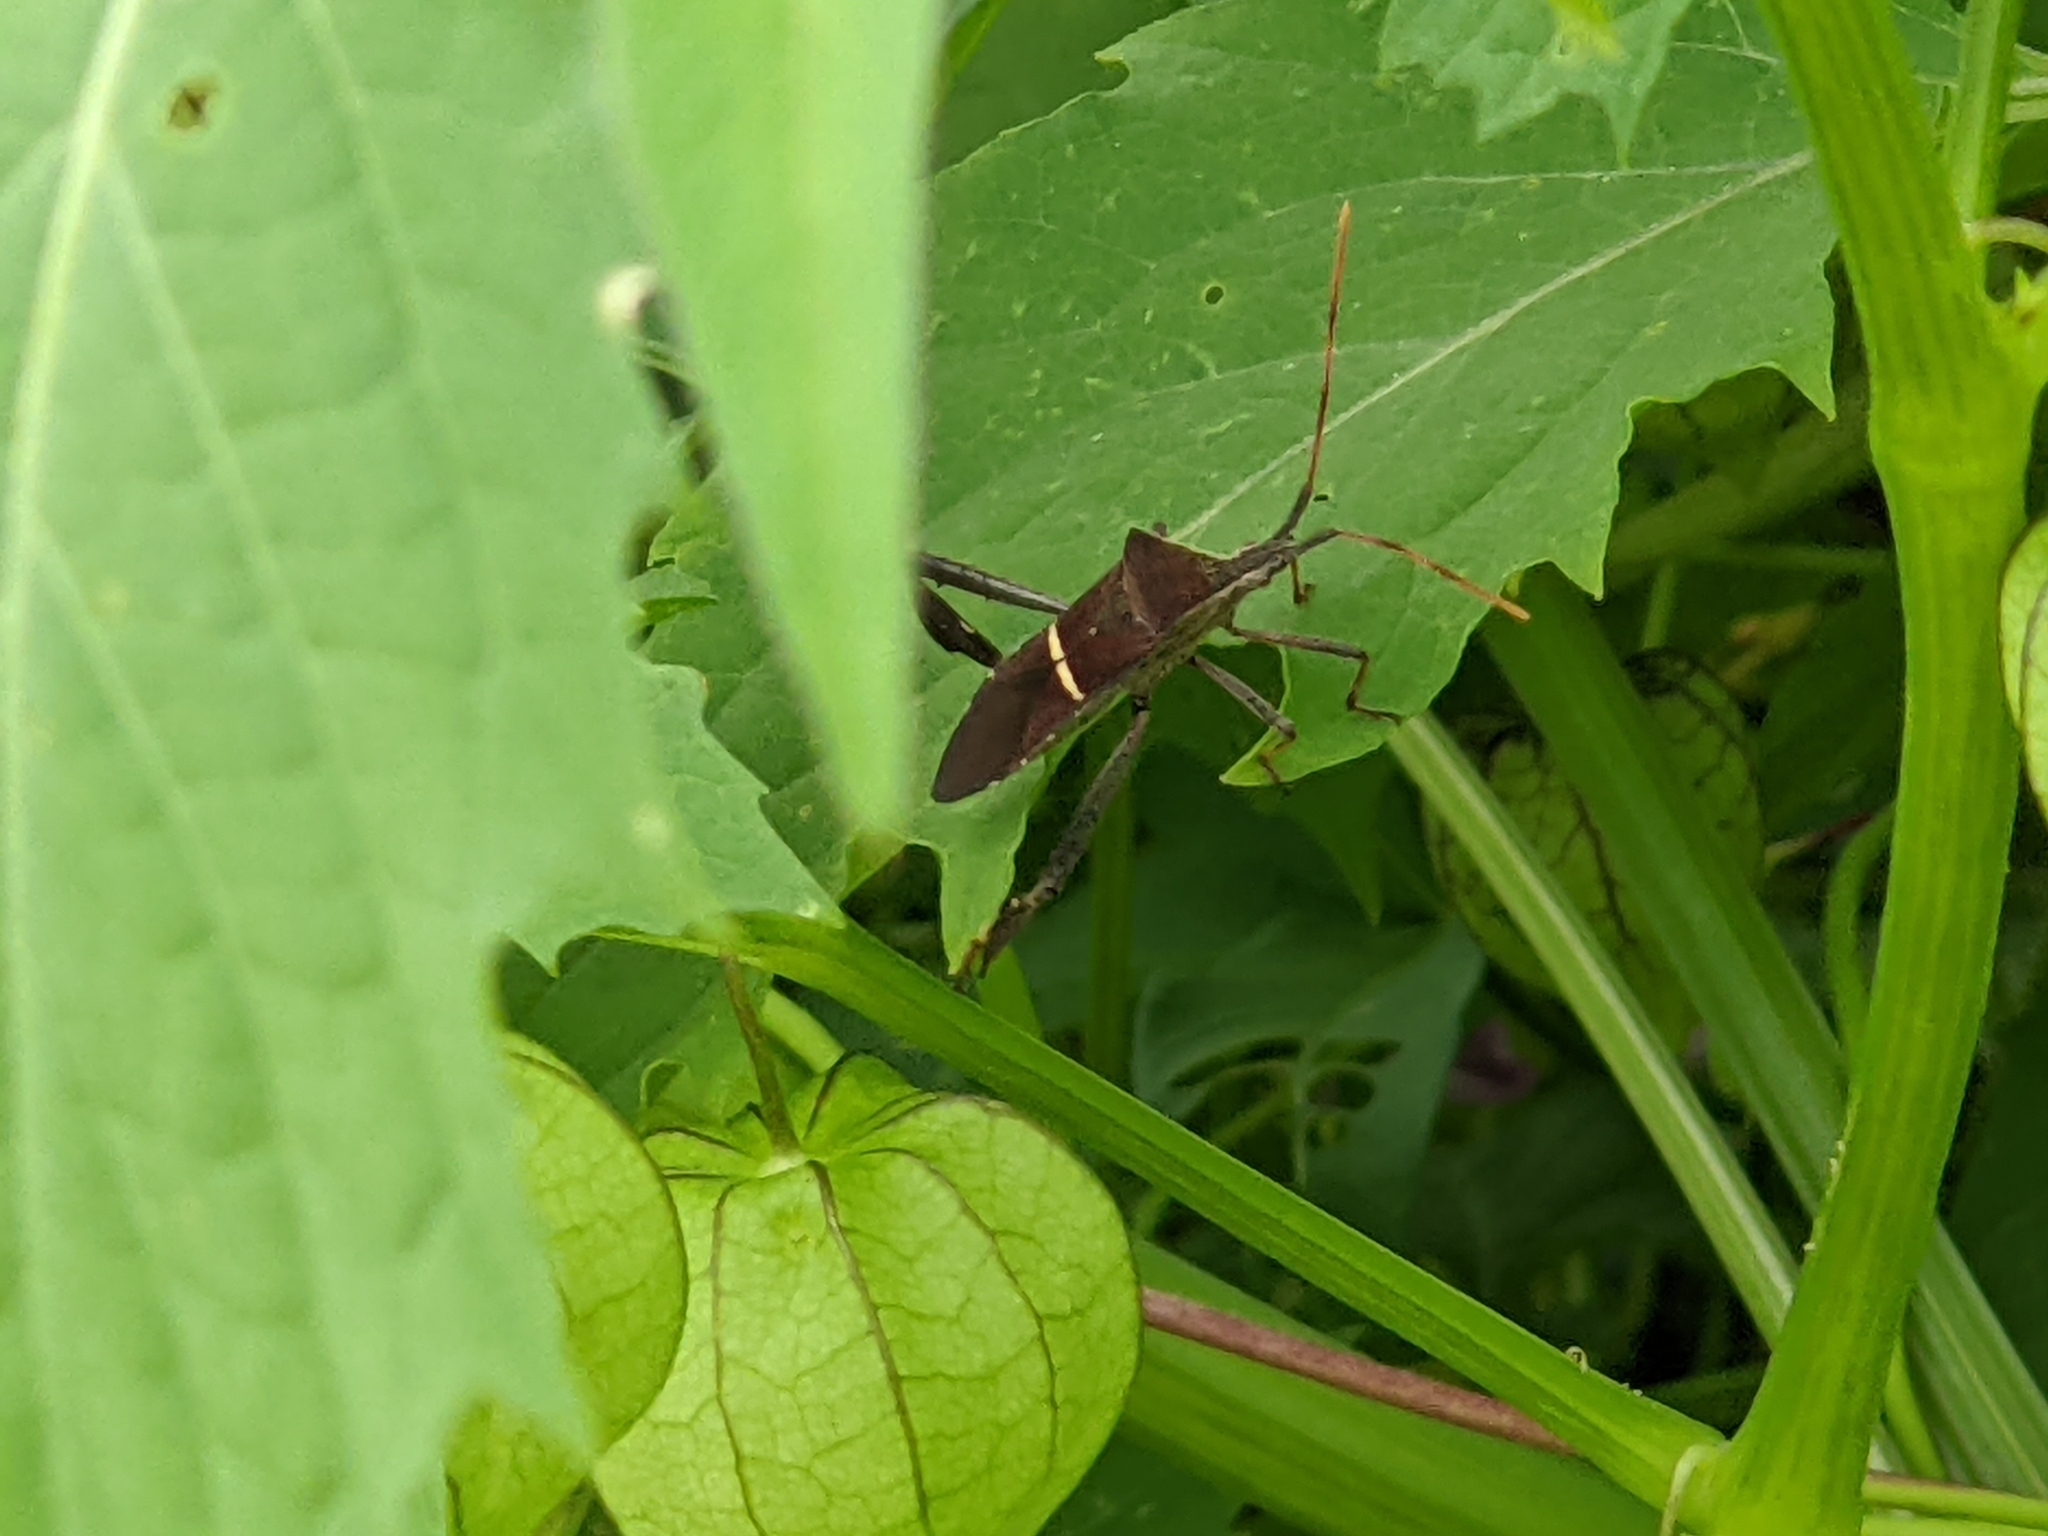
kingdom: Animalia
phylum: Arthropoda
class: Insecta
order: Hemiptera
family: Coreidae
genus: Leptoglossus
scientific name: Leptoglossus phyllopus
